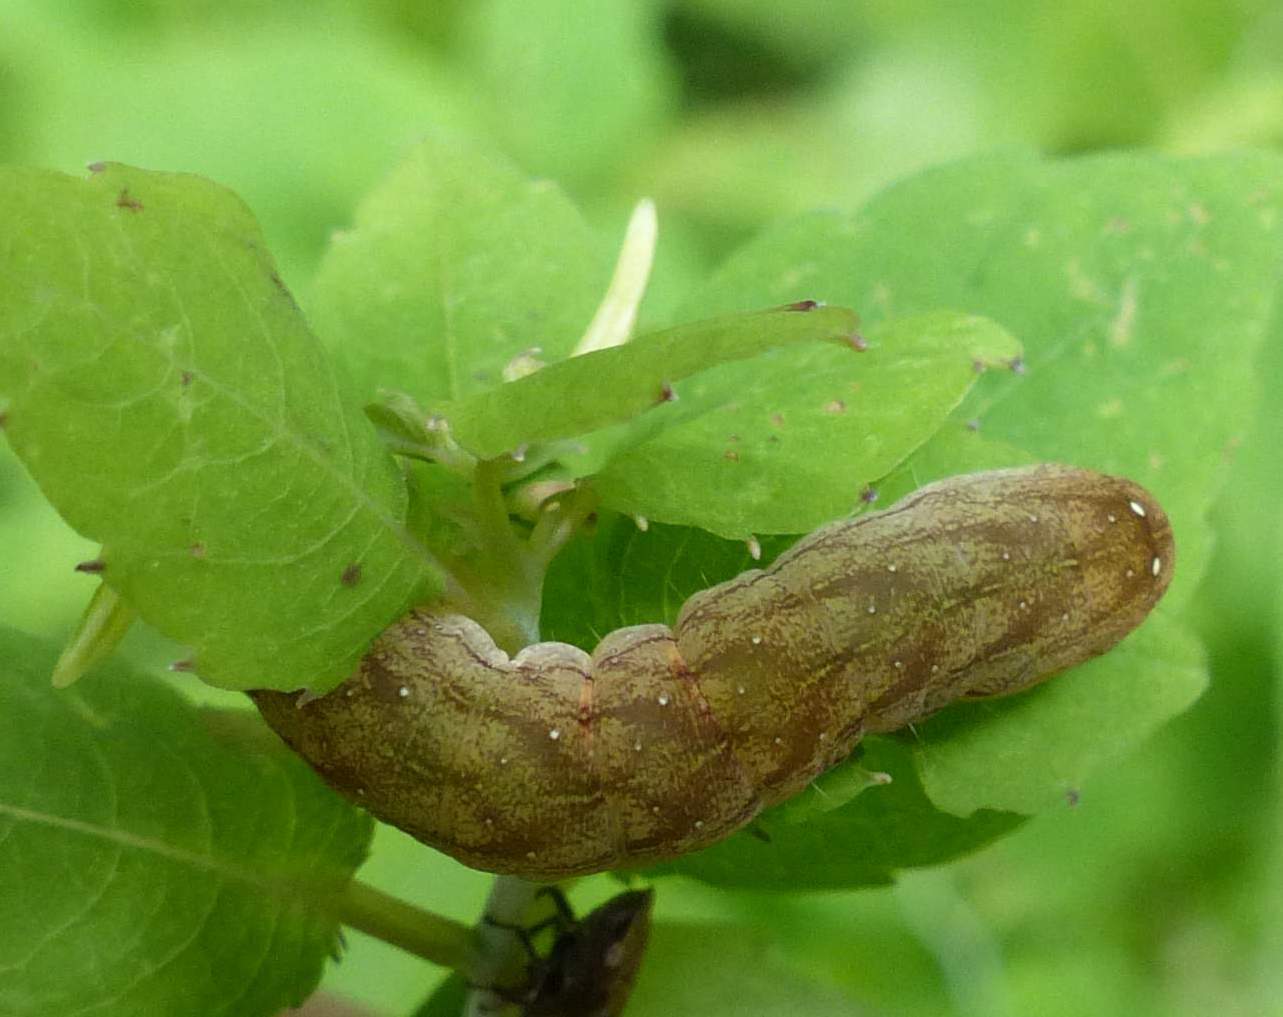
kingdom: Animalia
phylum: Arthropoda
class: Insecta
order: Lepidoptera
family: Noctuidae
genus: Euplexia
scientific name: Euplexia benesimilis
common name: American angle shades
